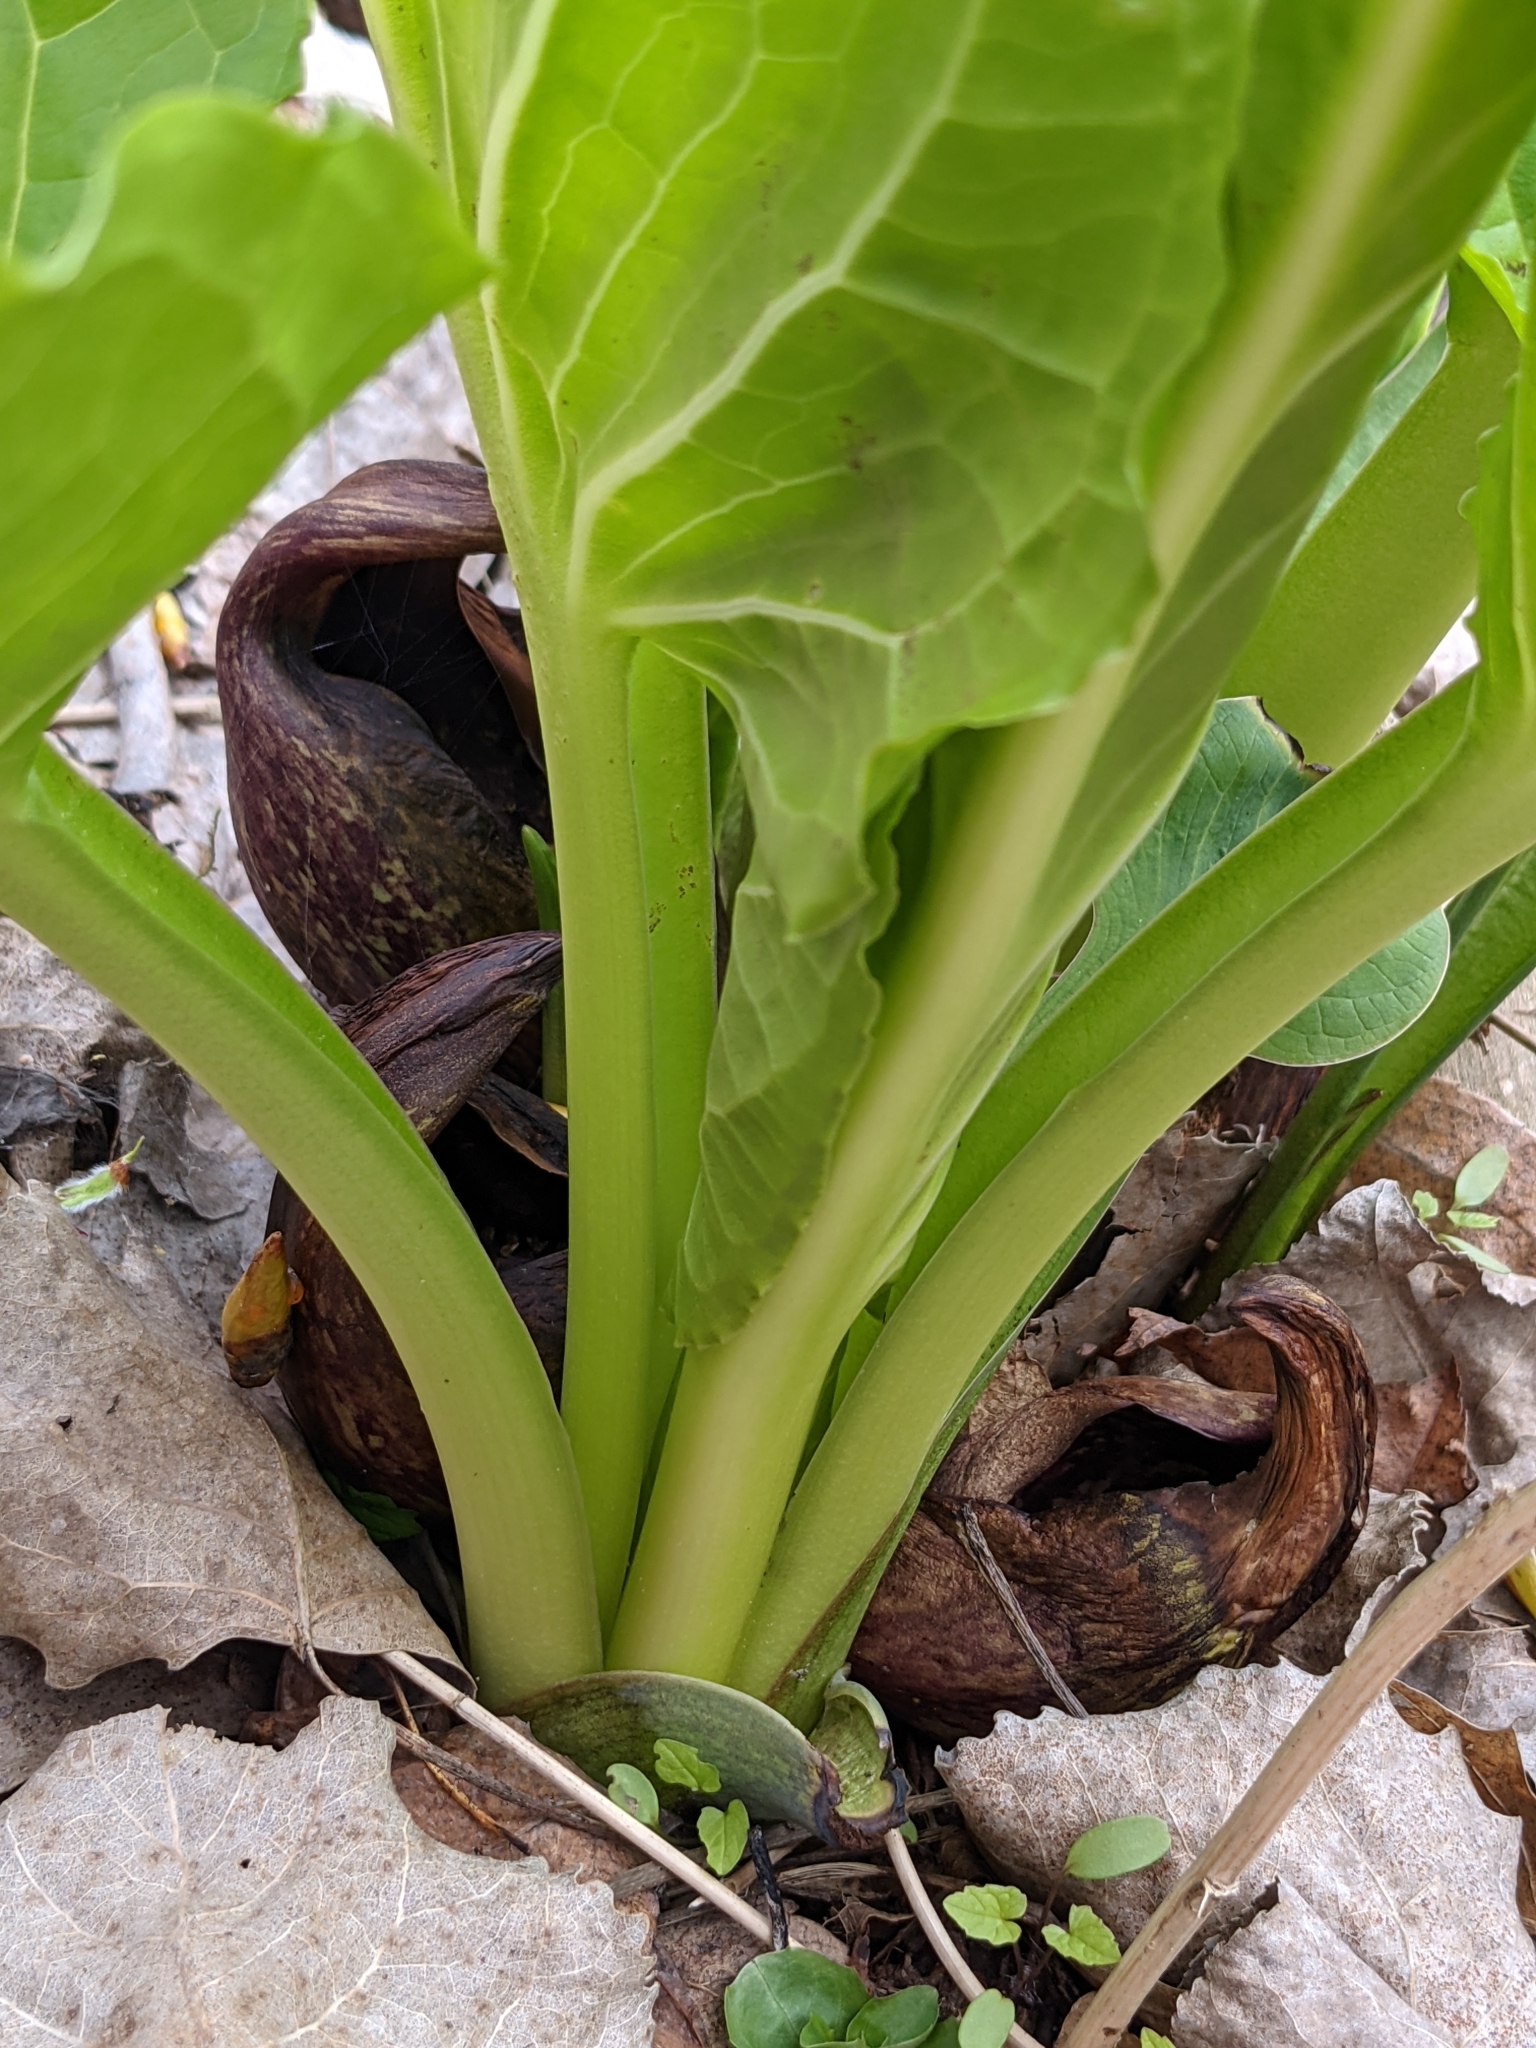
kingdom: Plantae
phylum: Tracheophyta
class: Liliopsida
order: Alismatales
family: Araceae
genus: Symplocarpus
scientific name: Symplocarpus foetidus
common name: Eastern skunk cabbage
